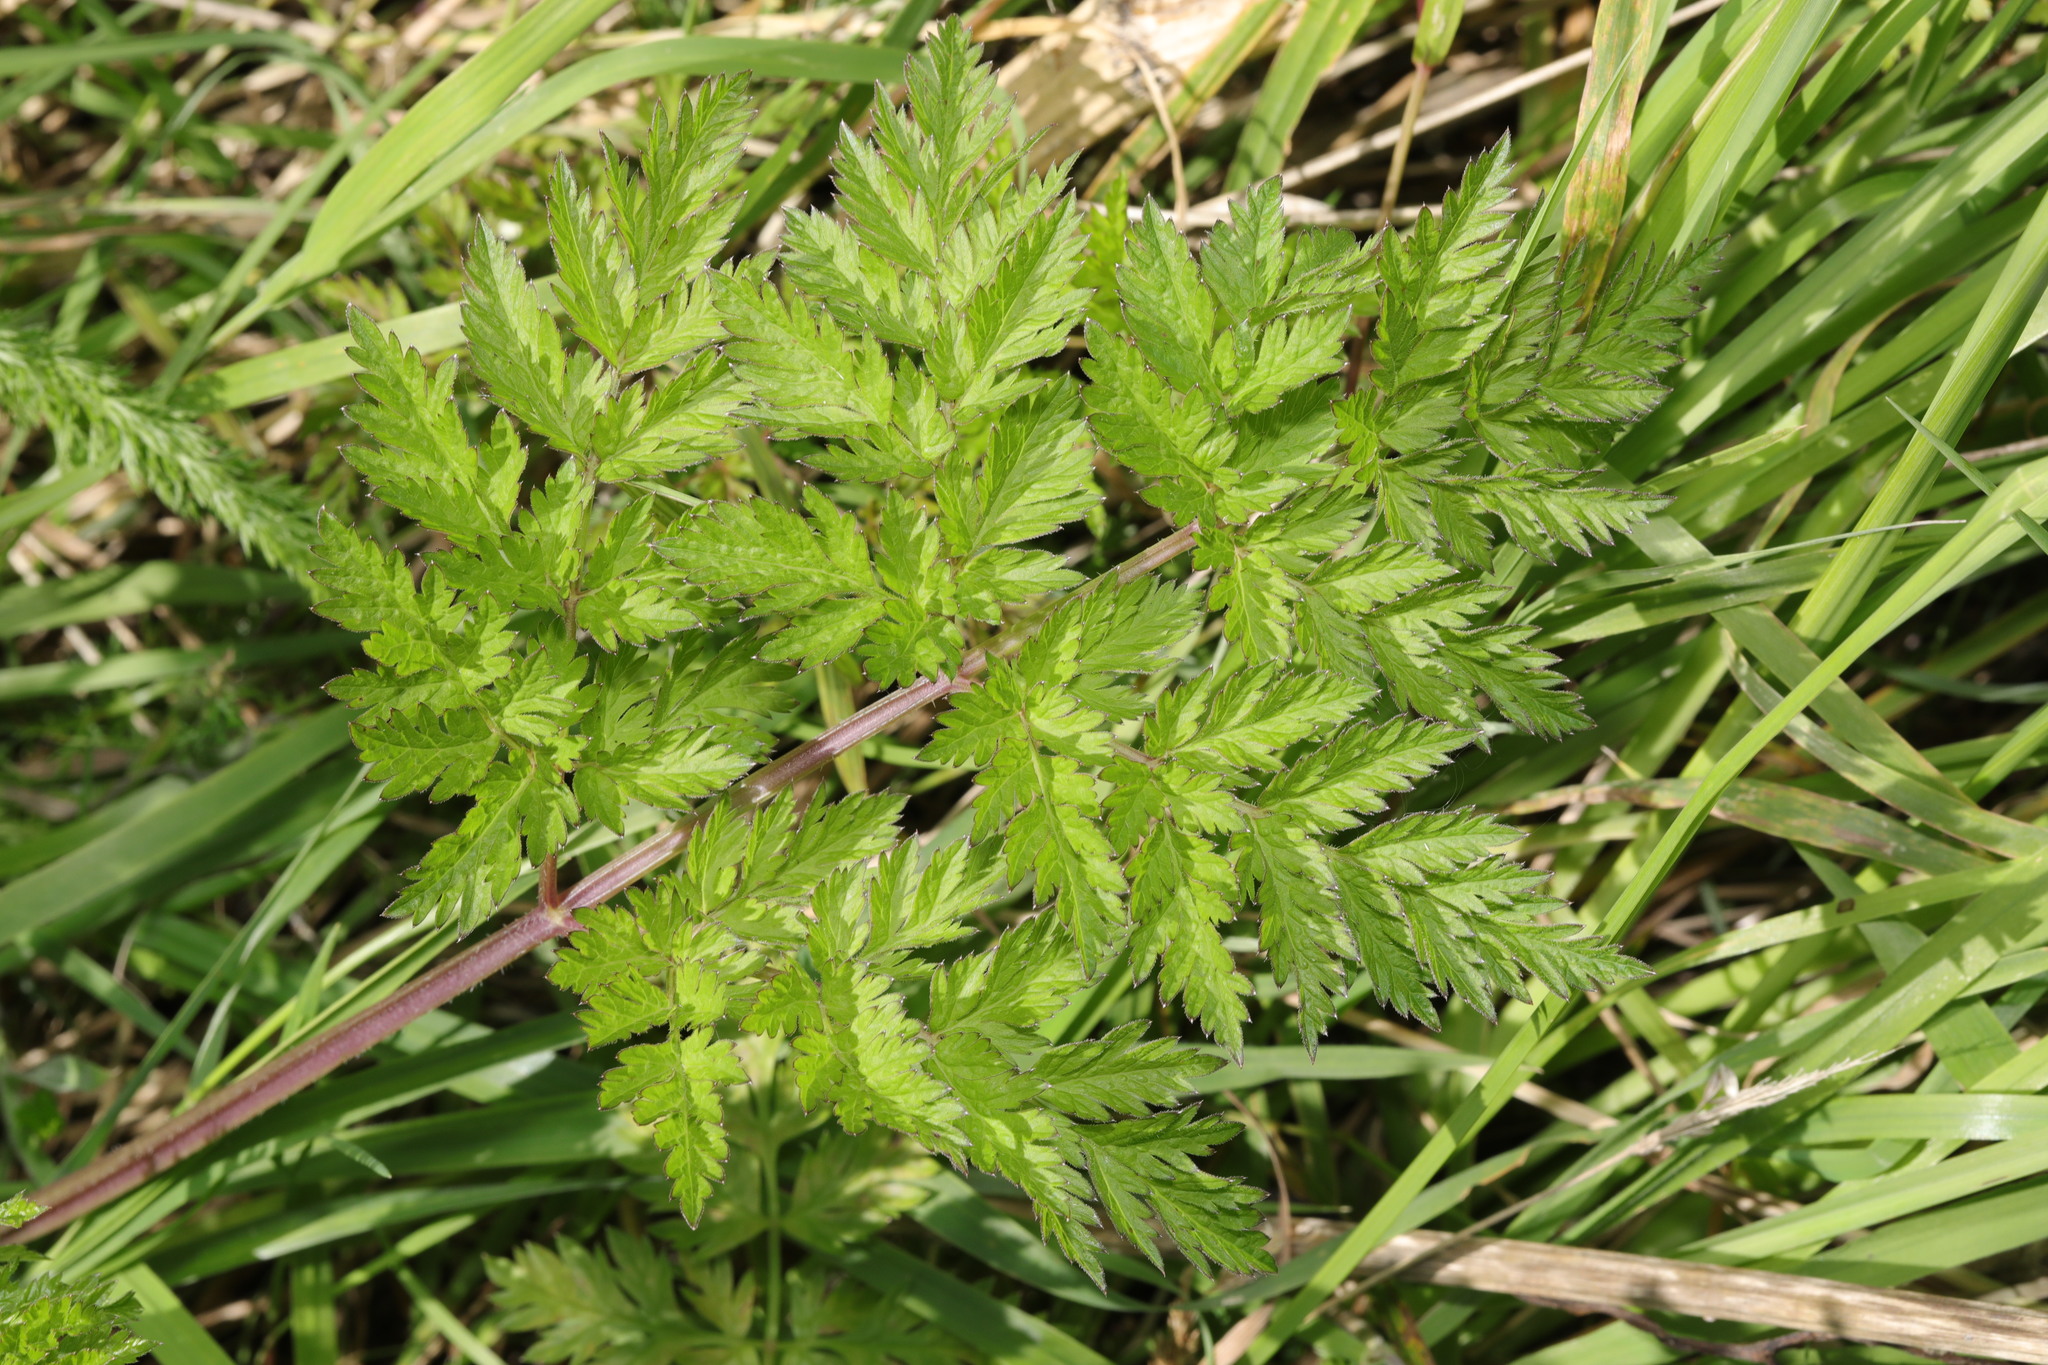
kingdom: Plantae
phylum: Tracheophyta
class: Magnoliopsida
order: Apiales
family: Apiaceae
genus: Anthriscus
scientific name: Anthriscus sylvestris
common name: Cow parsley
